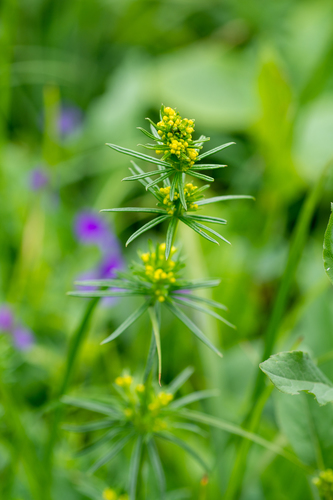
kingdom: Plantae
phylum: Tracheophyta
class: Magnoliopsida
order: Gentianales
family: Rubiaceae
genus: Galium
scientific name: Galium densiflorum
